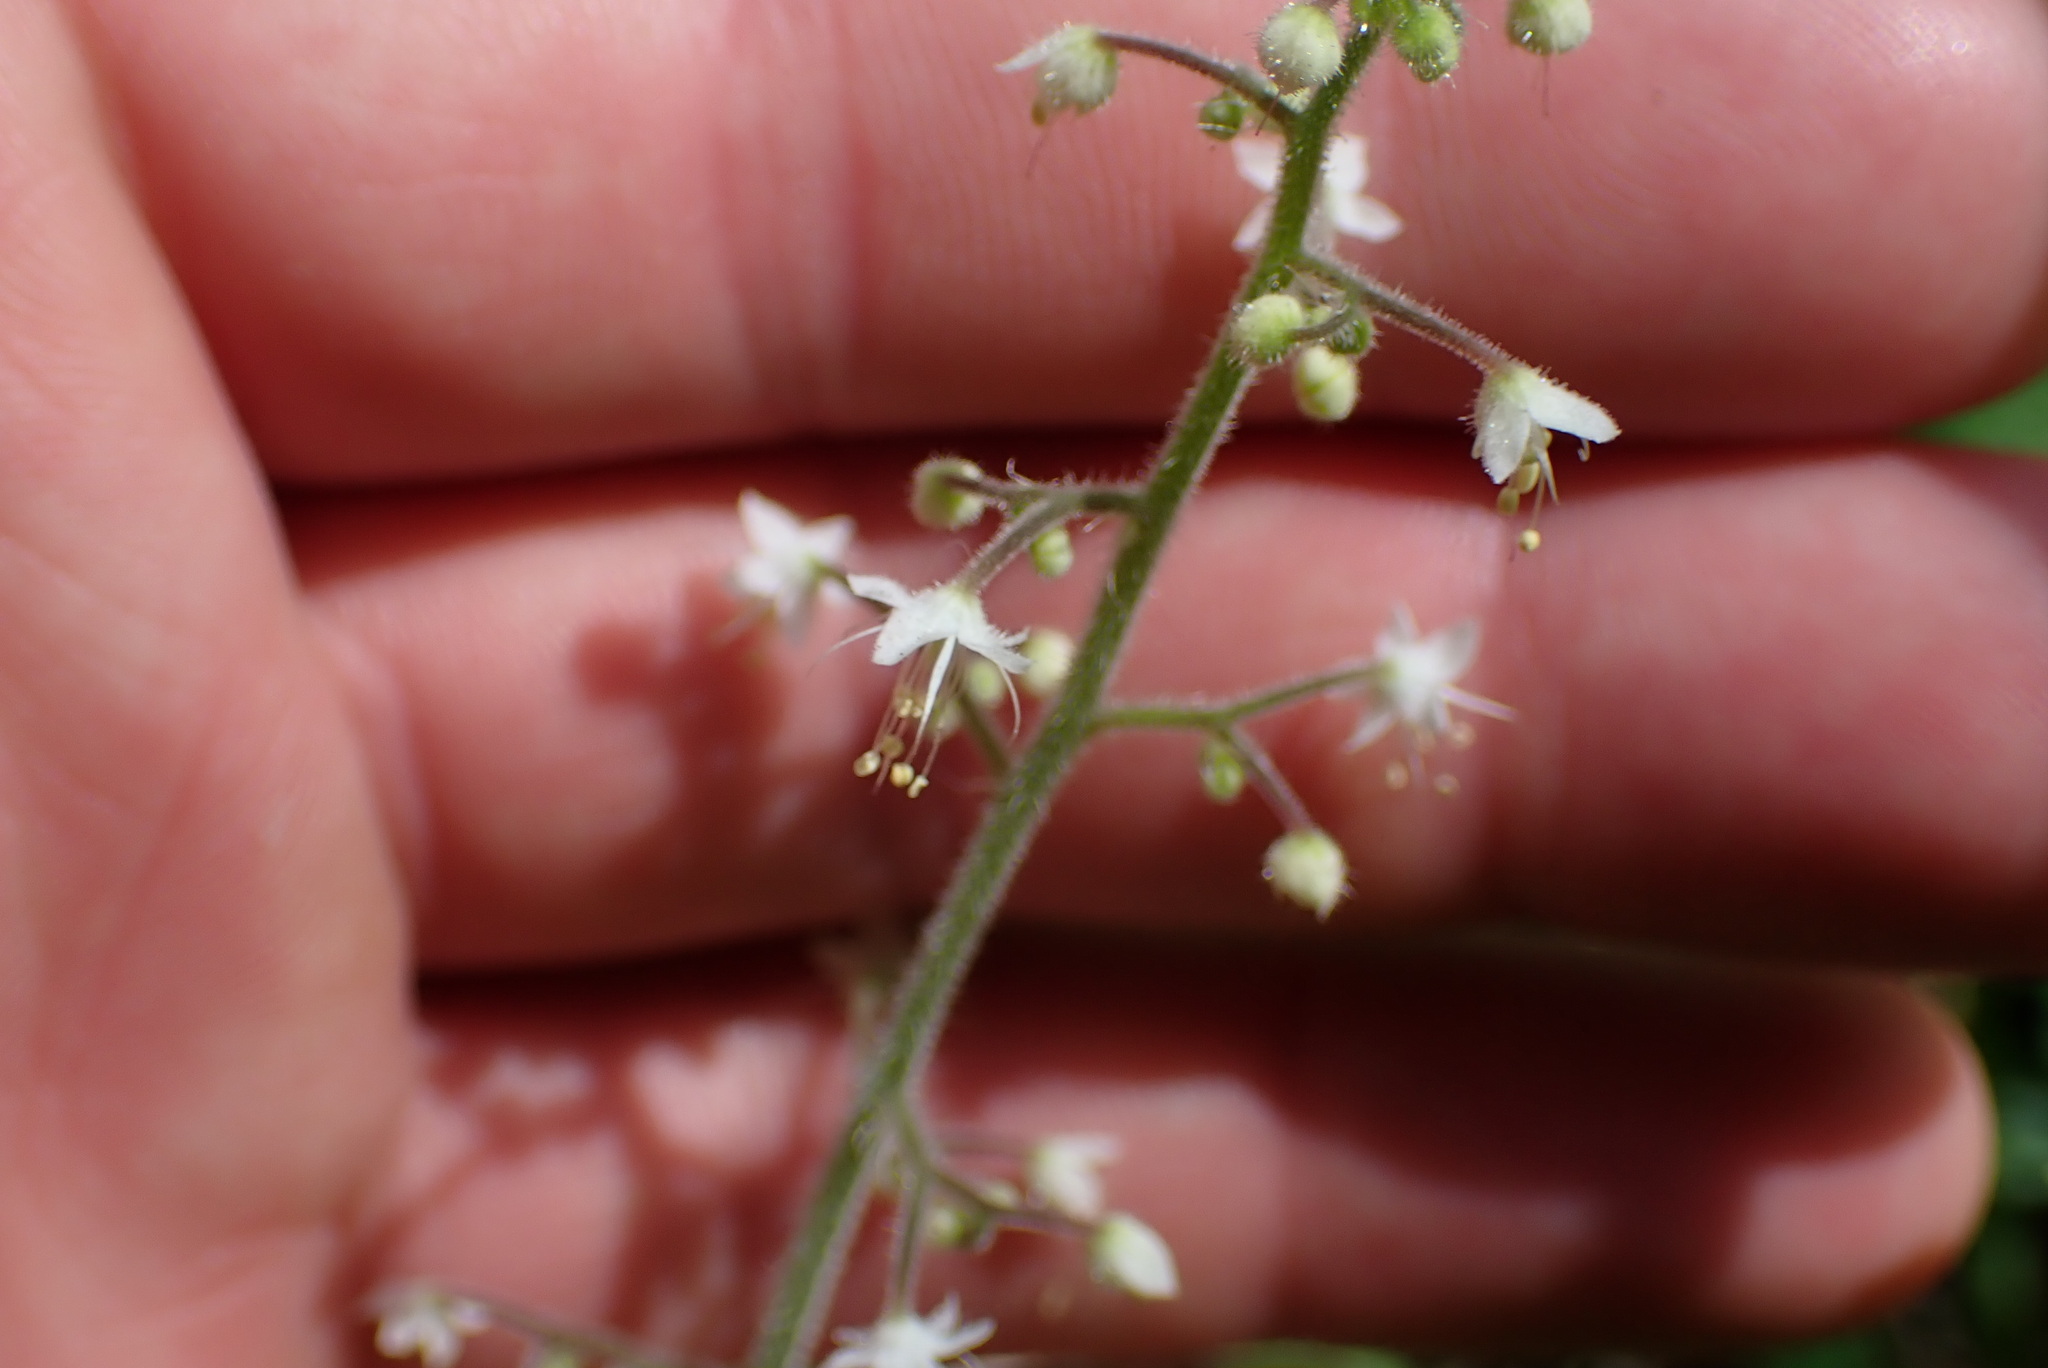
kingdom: Plantae
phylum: Tracheophyta
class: Magnoliopsida
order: Saxifragales
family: Saxifragaceae
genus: Tiarella
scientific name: Tiarella trifoliata
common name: Sugar-scoop
